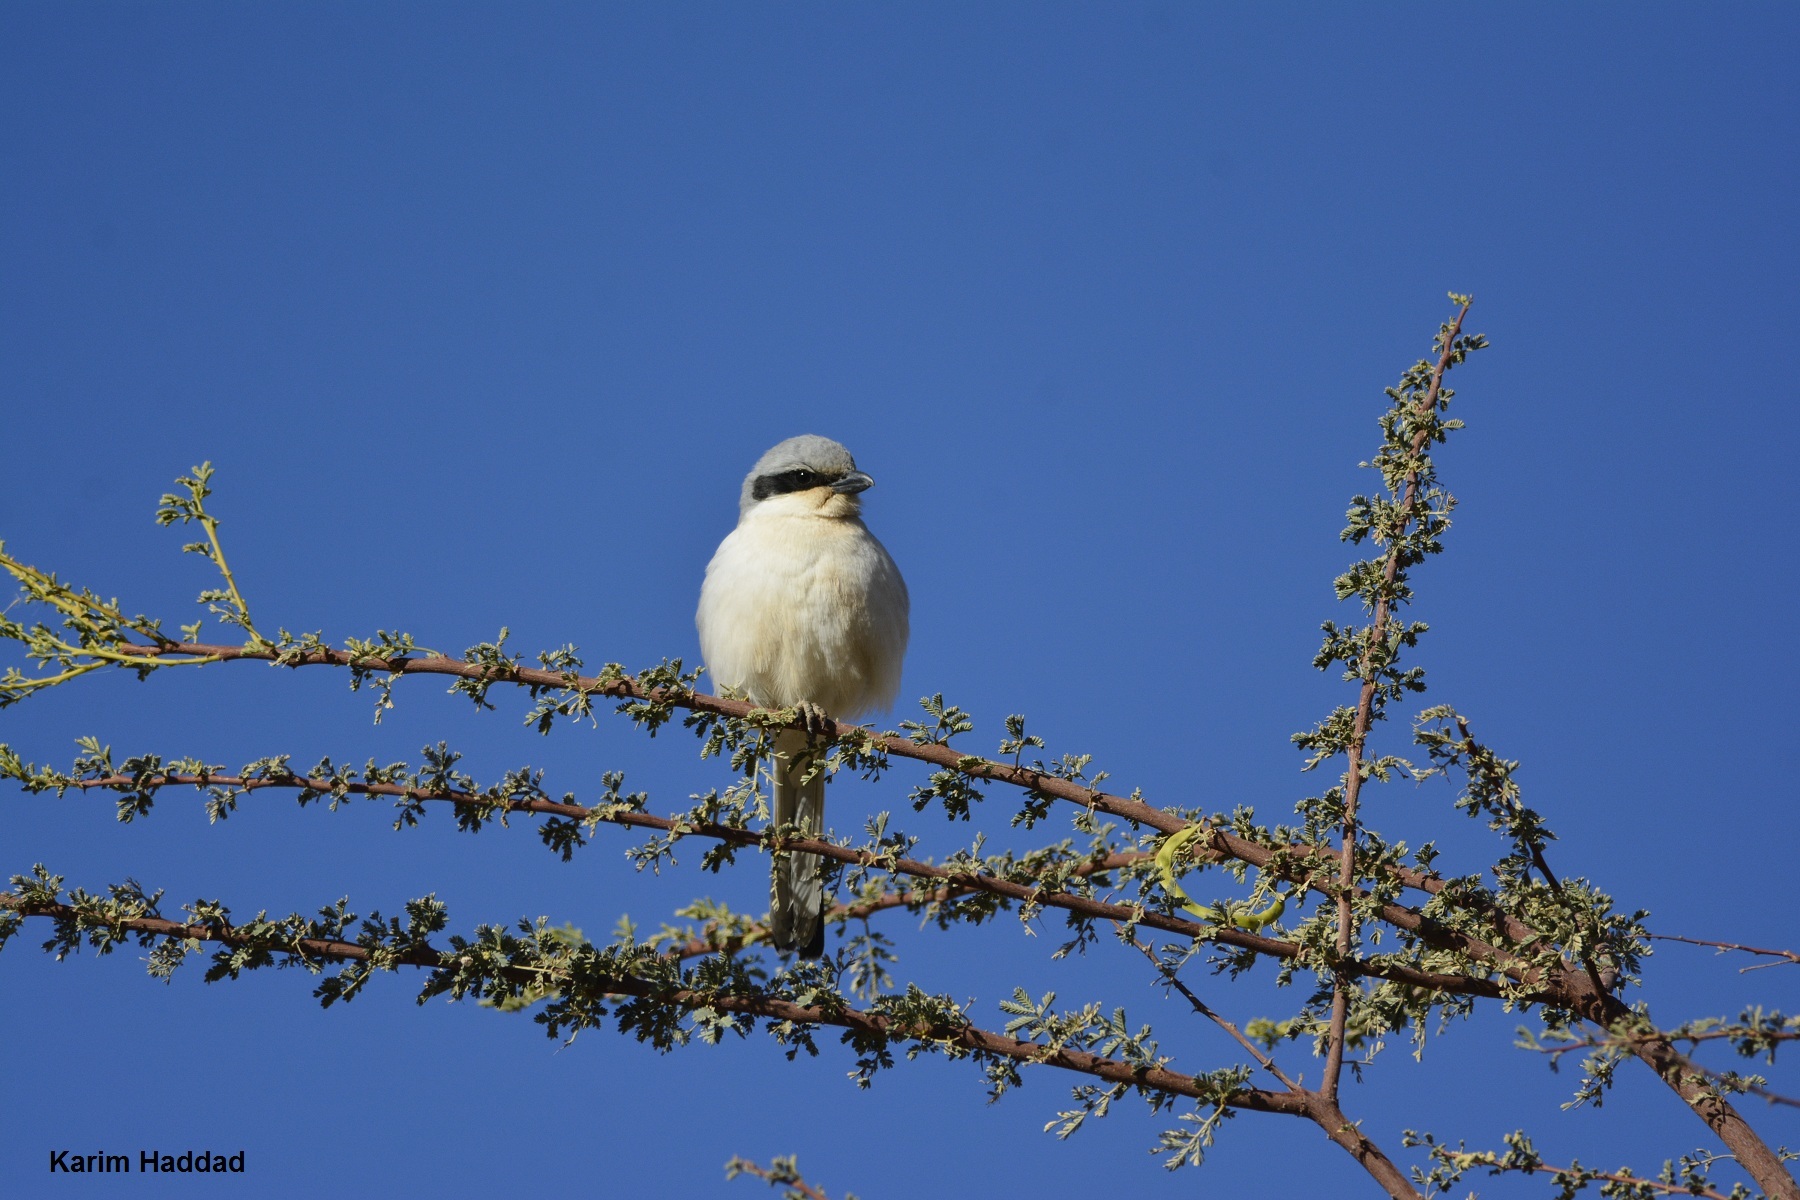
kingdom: Animalia
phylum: Chordata
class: Aves
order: Passeriformes
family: Laniidae
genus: Lanius
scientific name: Lanius excubitor
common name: Great grey shrike
